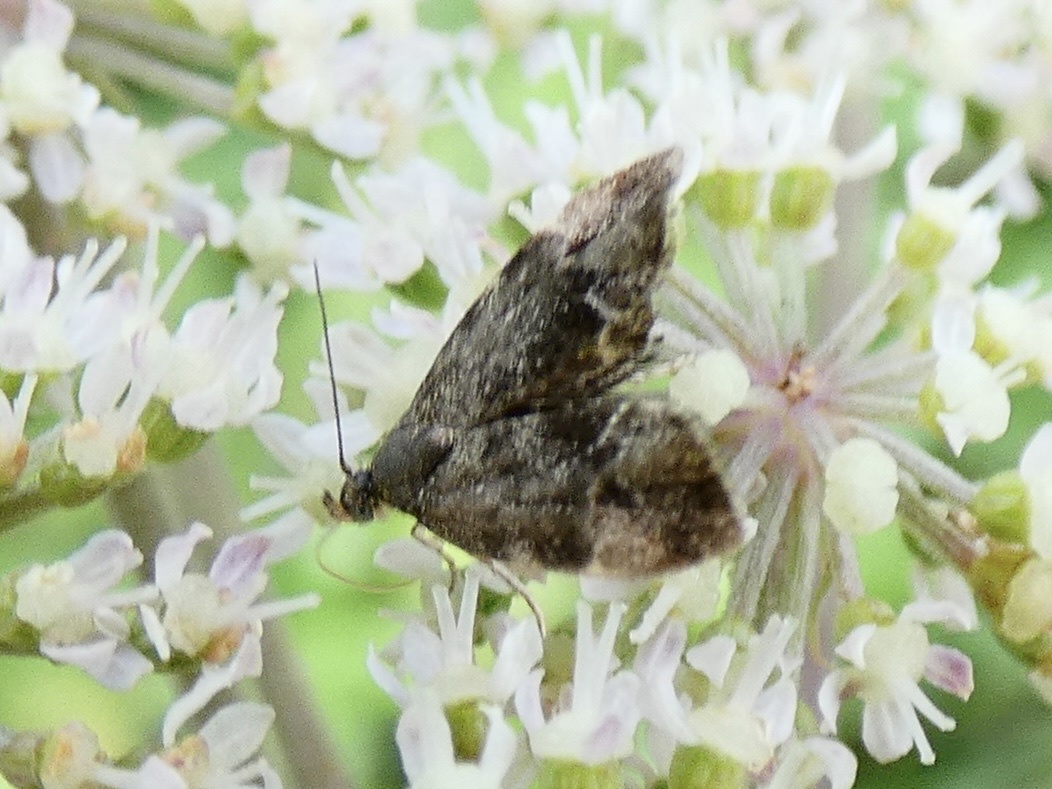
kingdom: Animalia
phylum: Arthropoda
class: Insecta
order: Lepidoptera
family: Choreutidae
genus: Anthophila
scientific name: Anthophila fabriciana
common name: Nettle-tap
